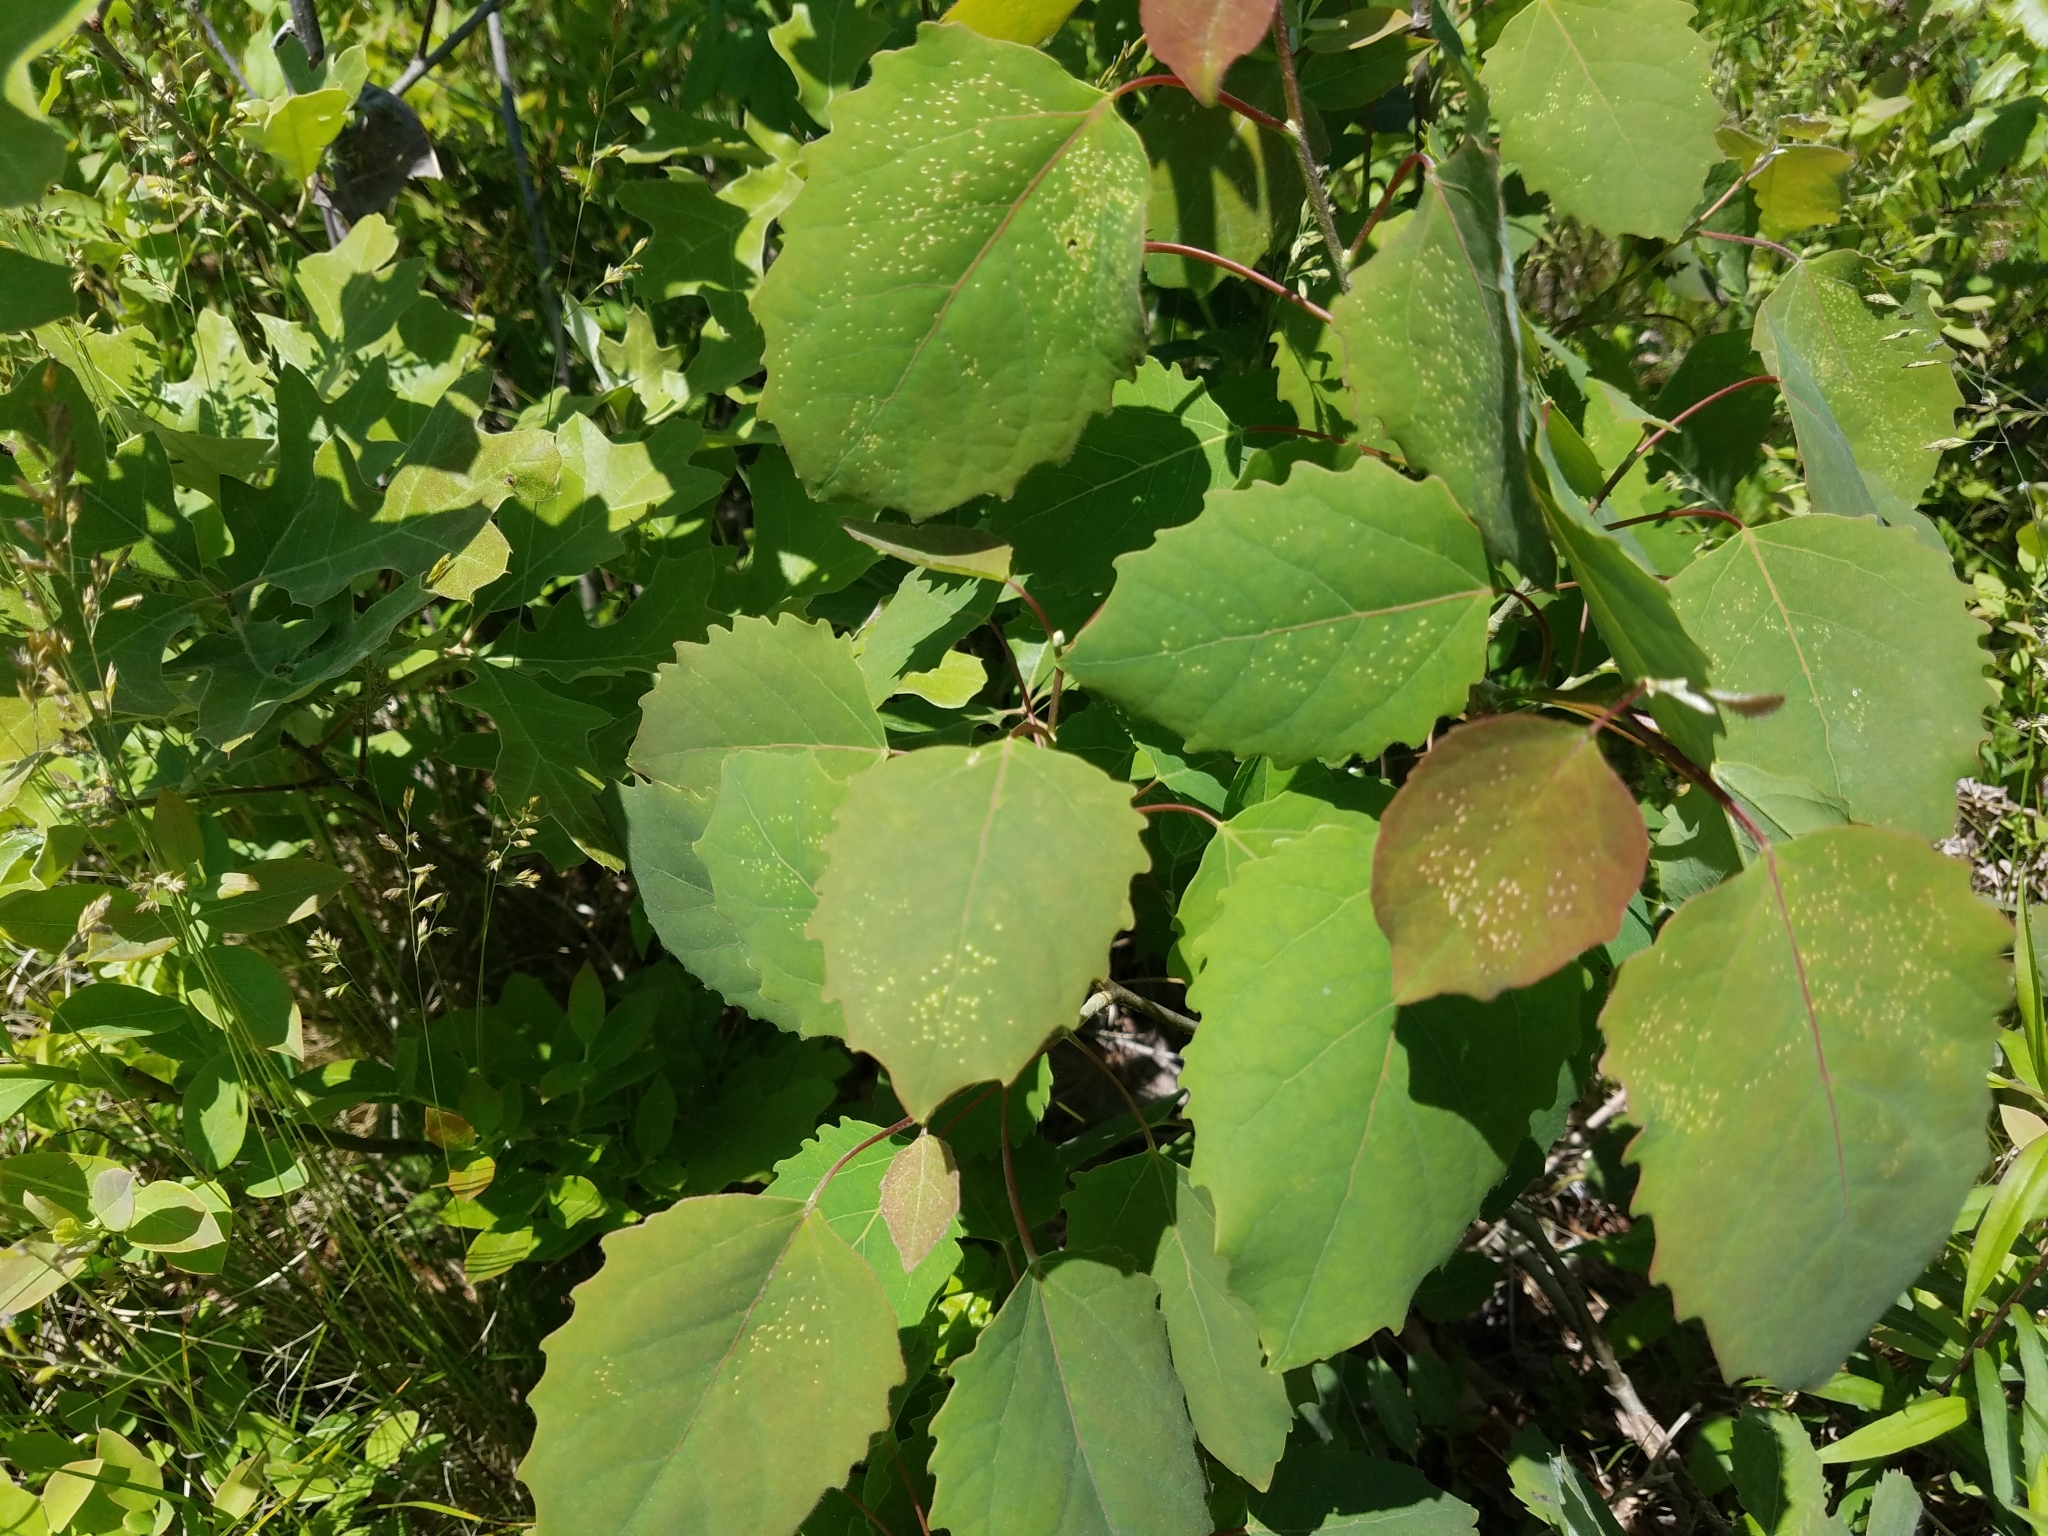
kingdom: Plantae
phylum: Tracheophyta
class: Magnoliopsida
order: Malpighiales
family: Salicaceae
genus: Populus
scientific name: Populus grandidentata
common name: Bigtooth aspen
